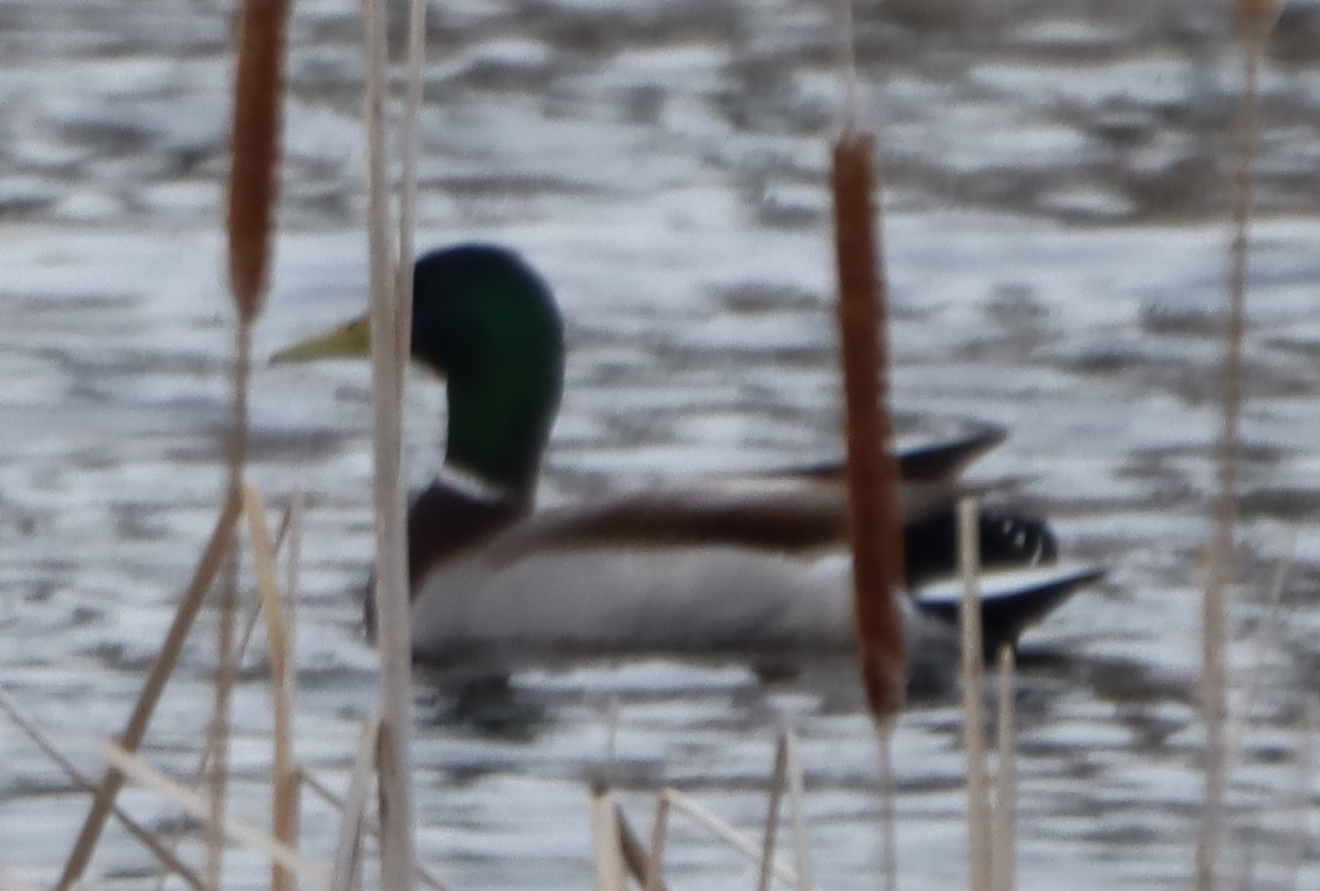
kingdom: Animalia
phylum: Chordata
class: Aves
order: Anseriformes
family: Anatidae
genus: Anas
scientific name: Anas platyrhynchos
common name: Mallard
